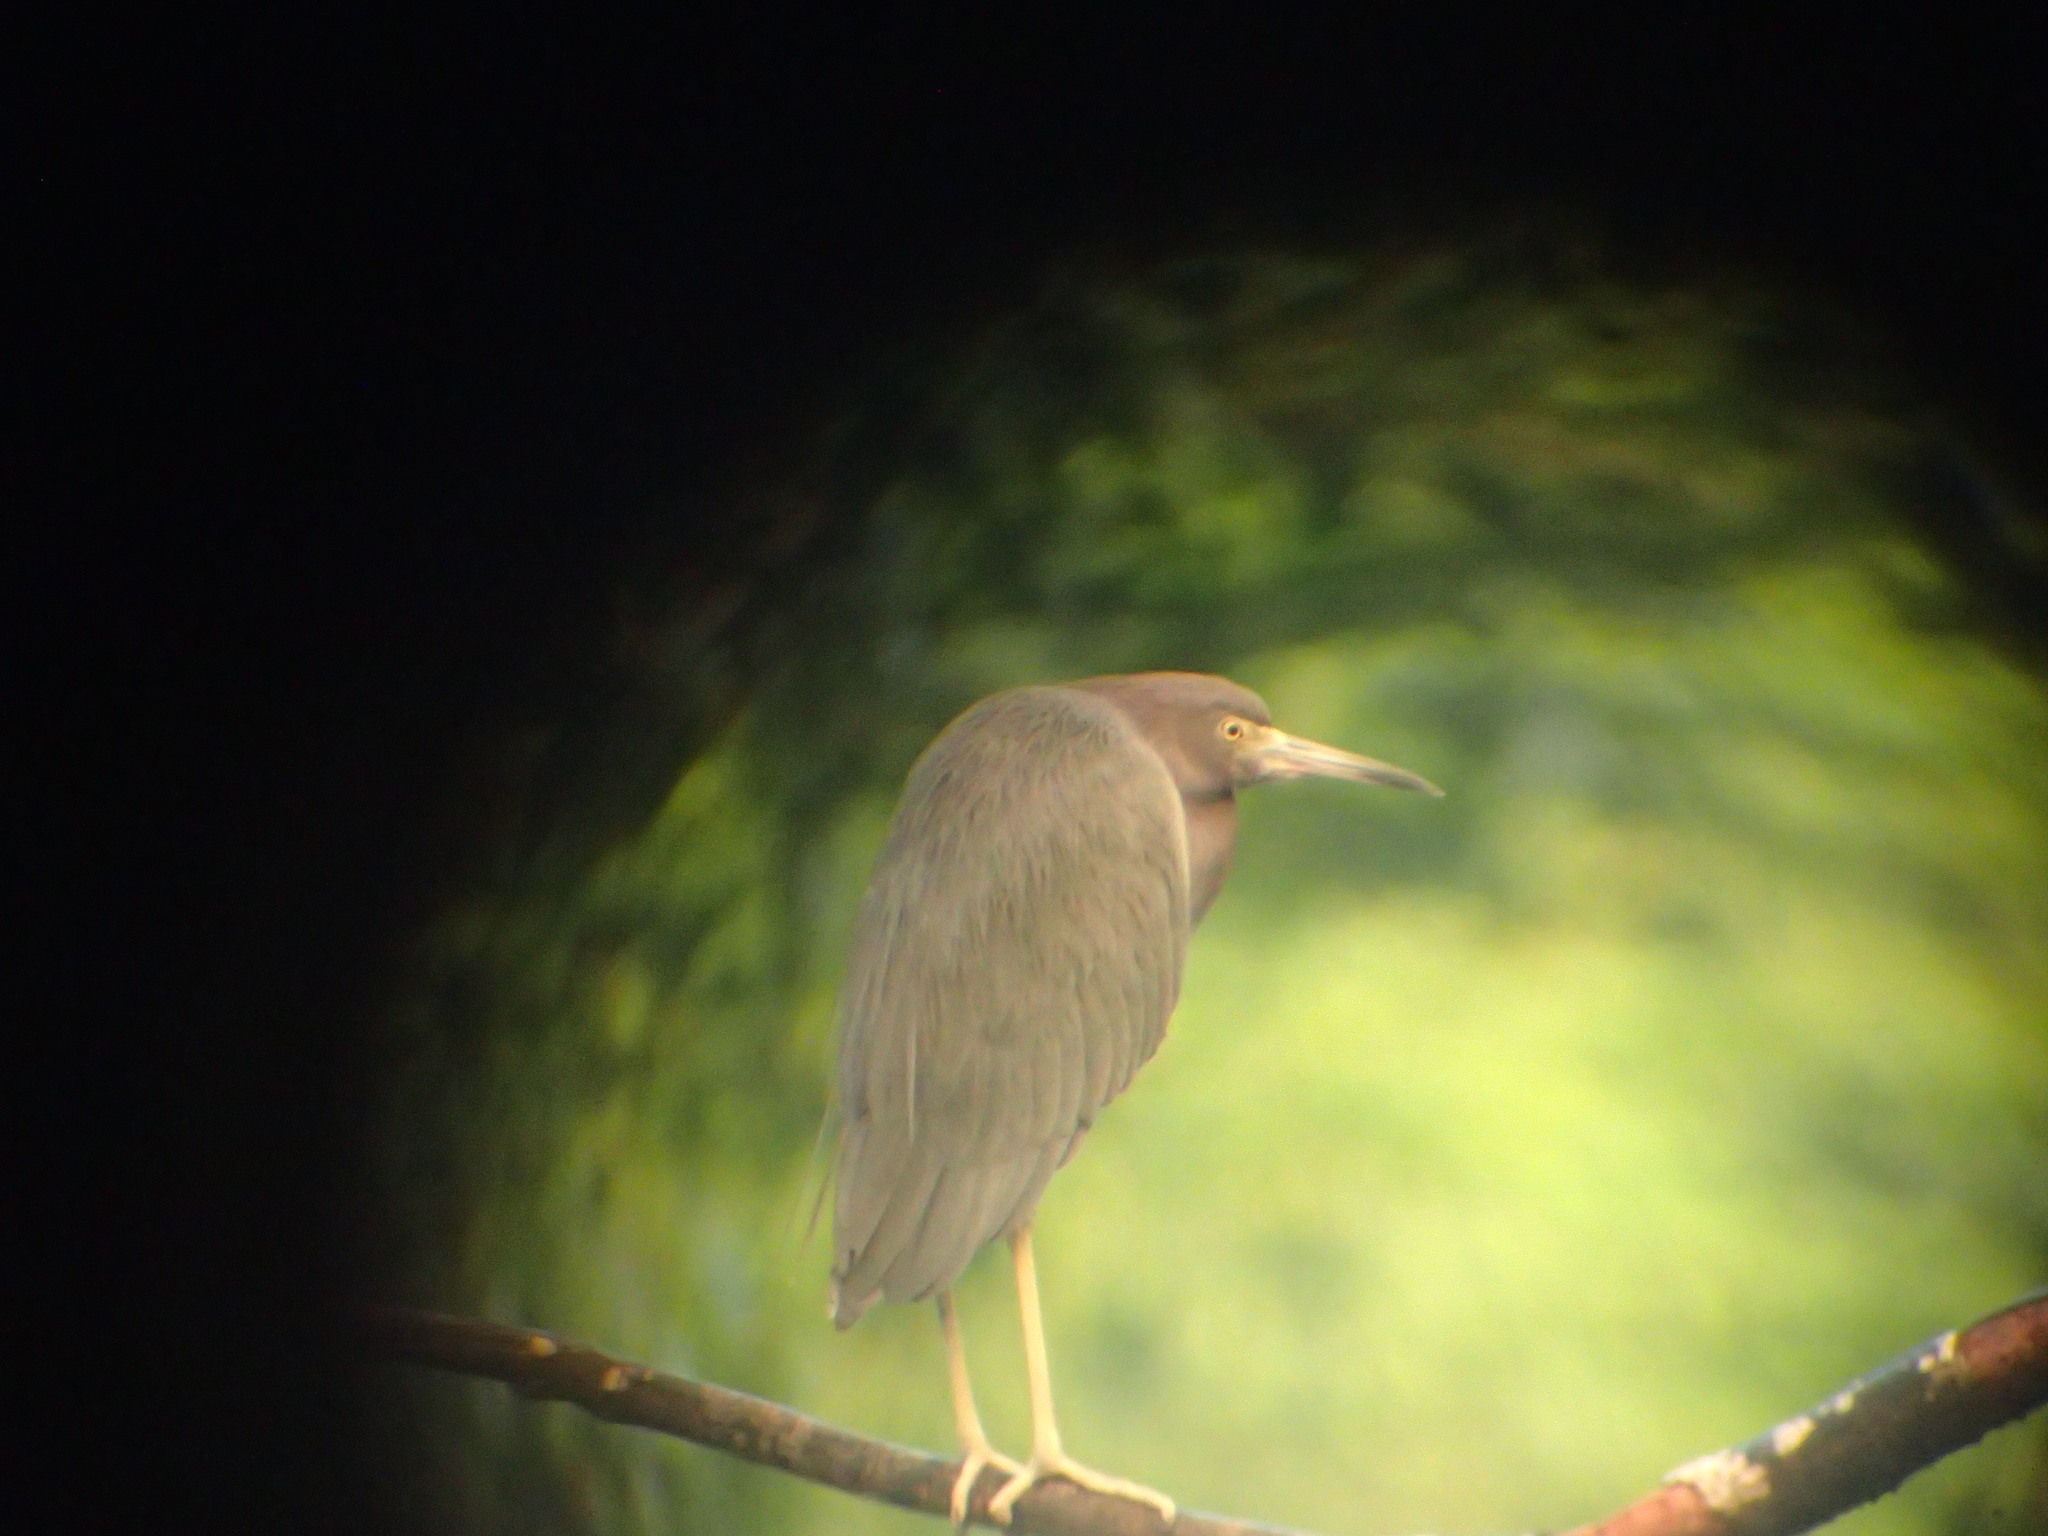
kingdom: Animalia
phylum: Chordata
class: Aves
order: Pelecaniformes
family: Ardeidae
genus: Egretta
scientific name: Egretta caerulea
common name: Little blue heron
